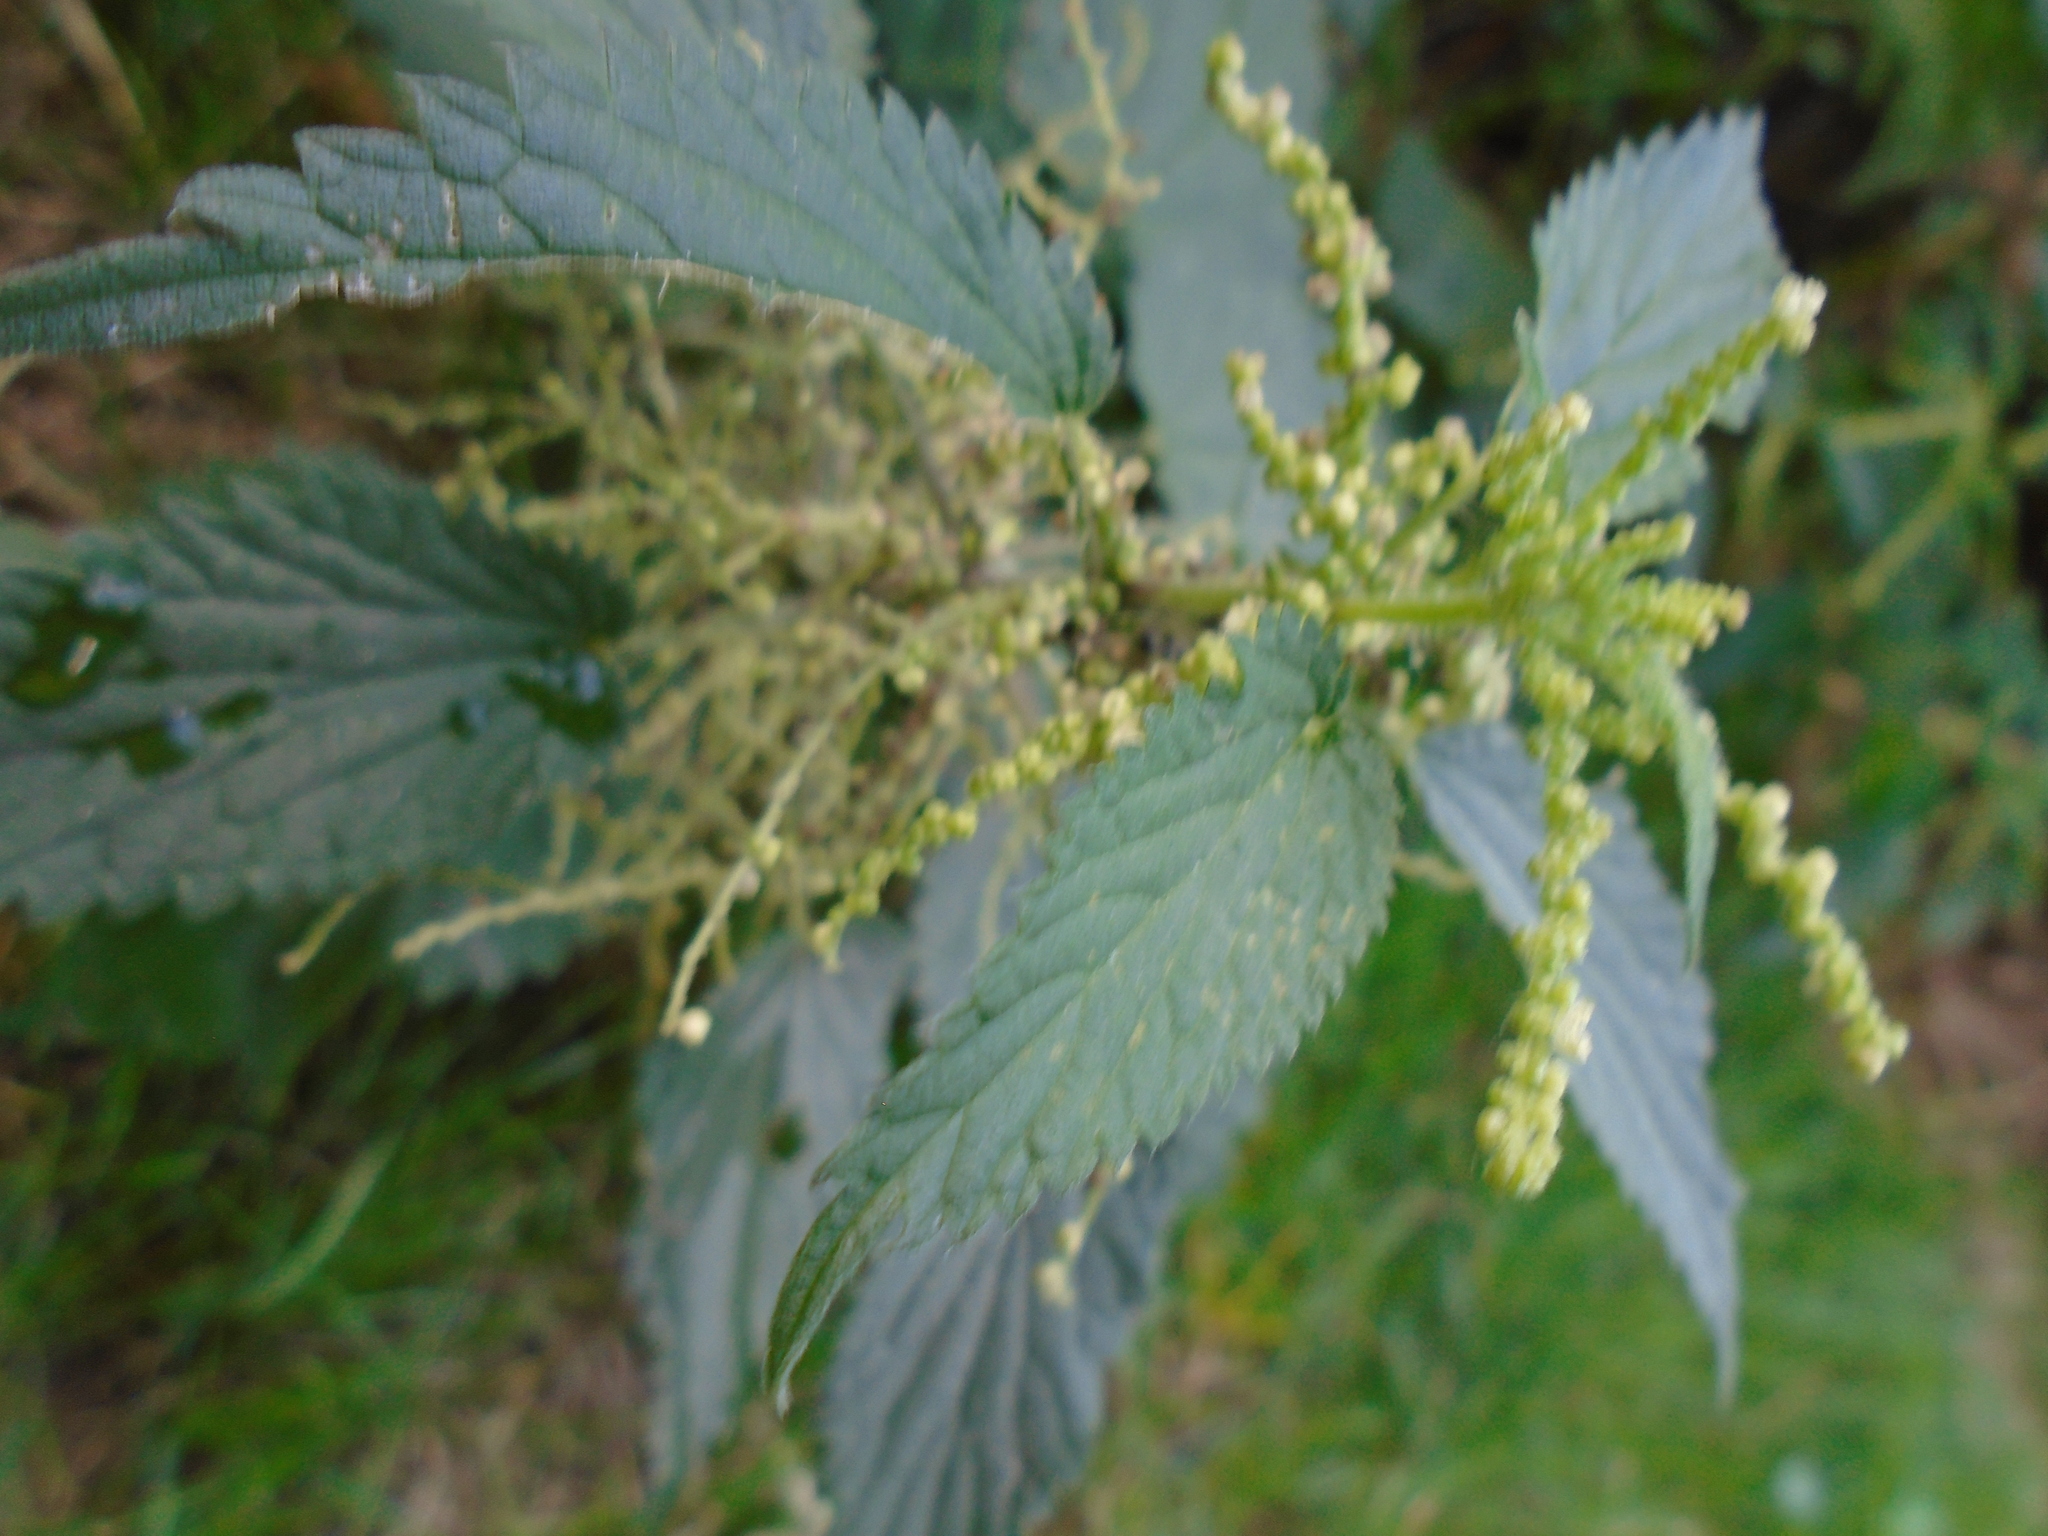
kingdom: Plantae
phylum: Tracheophyta
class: Magnoliopsida
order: Rosales
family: Urticaceae
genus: Urtica
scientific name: Urtica dioica
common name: Common nettle
